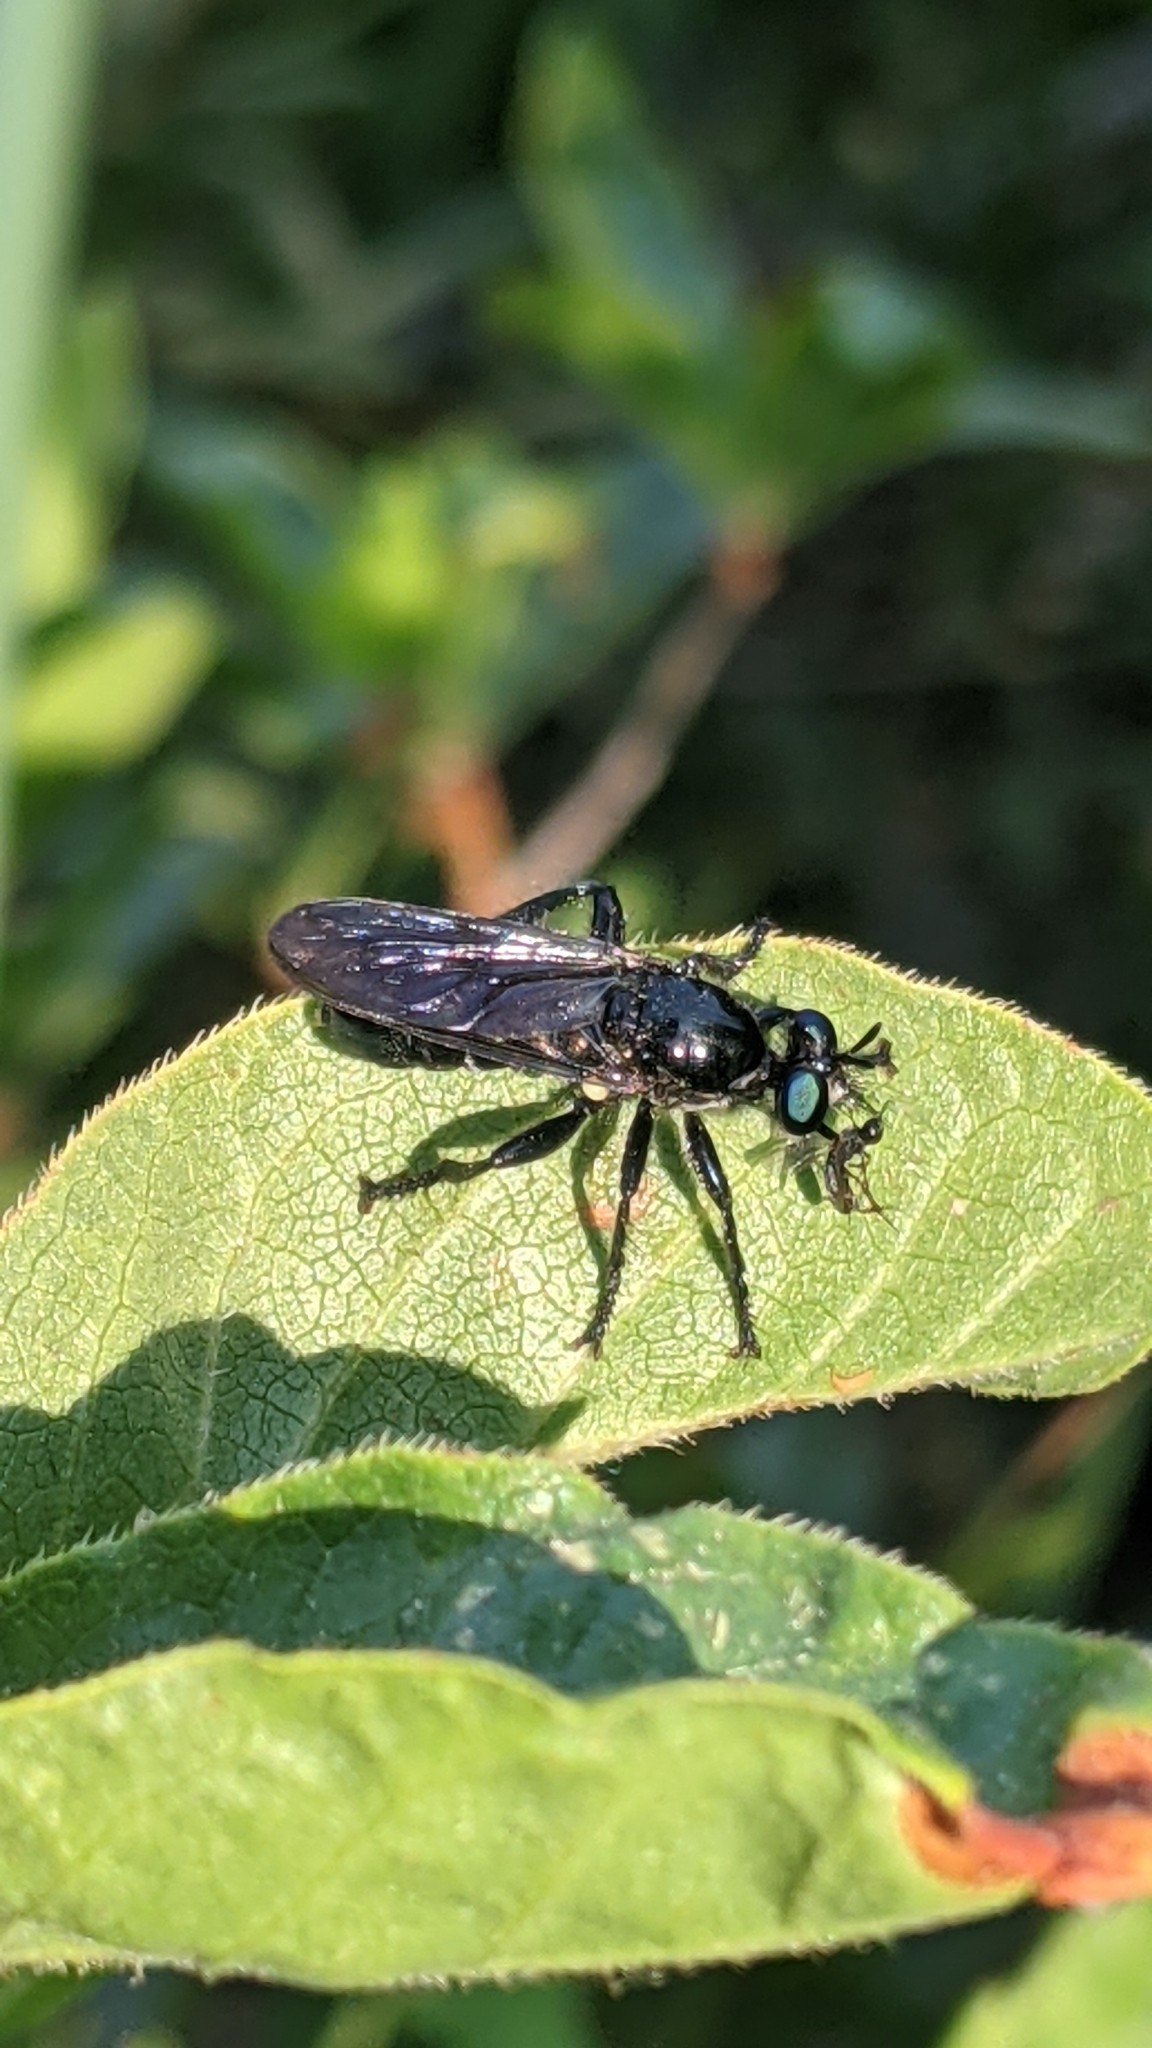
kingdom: Animalia
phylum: Arthropoda
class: Insecta
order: Diptera
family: Asilidae
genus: Laphria
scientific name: Laphria franciscana
